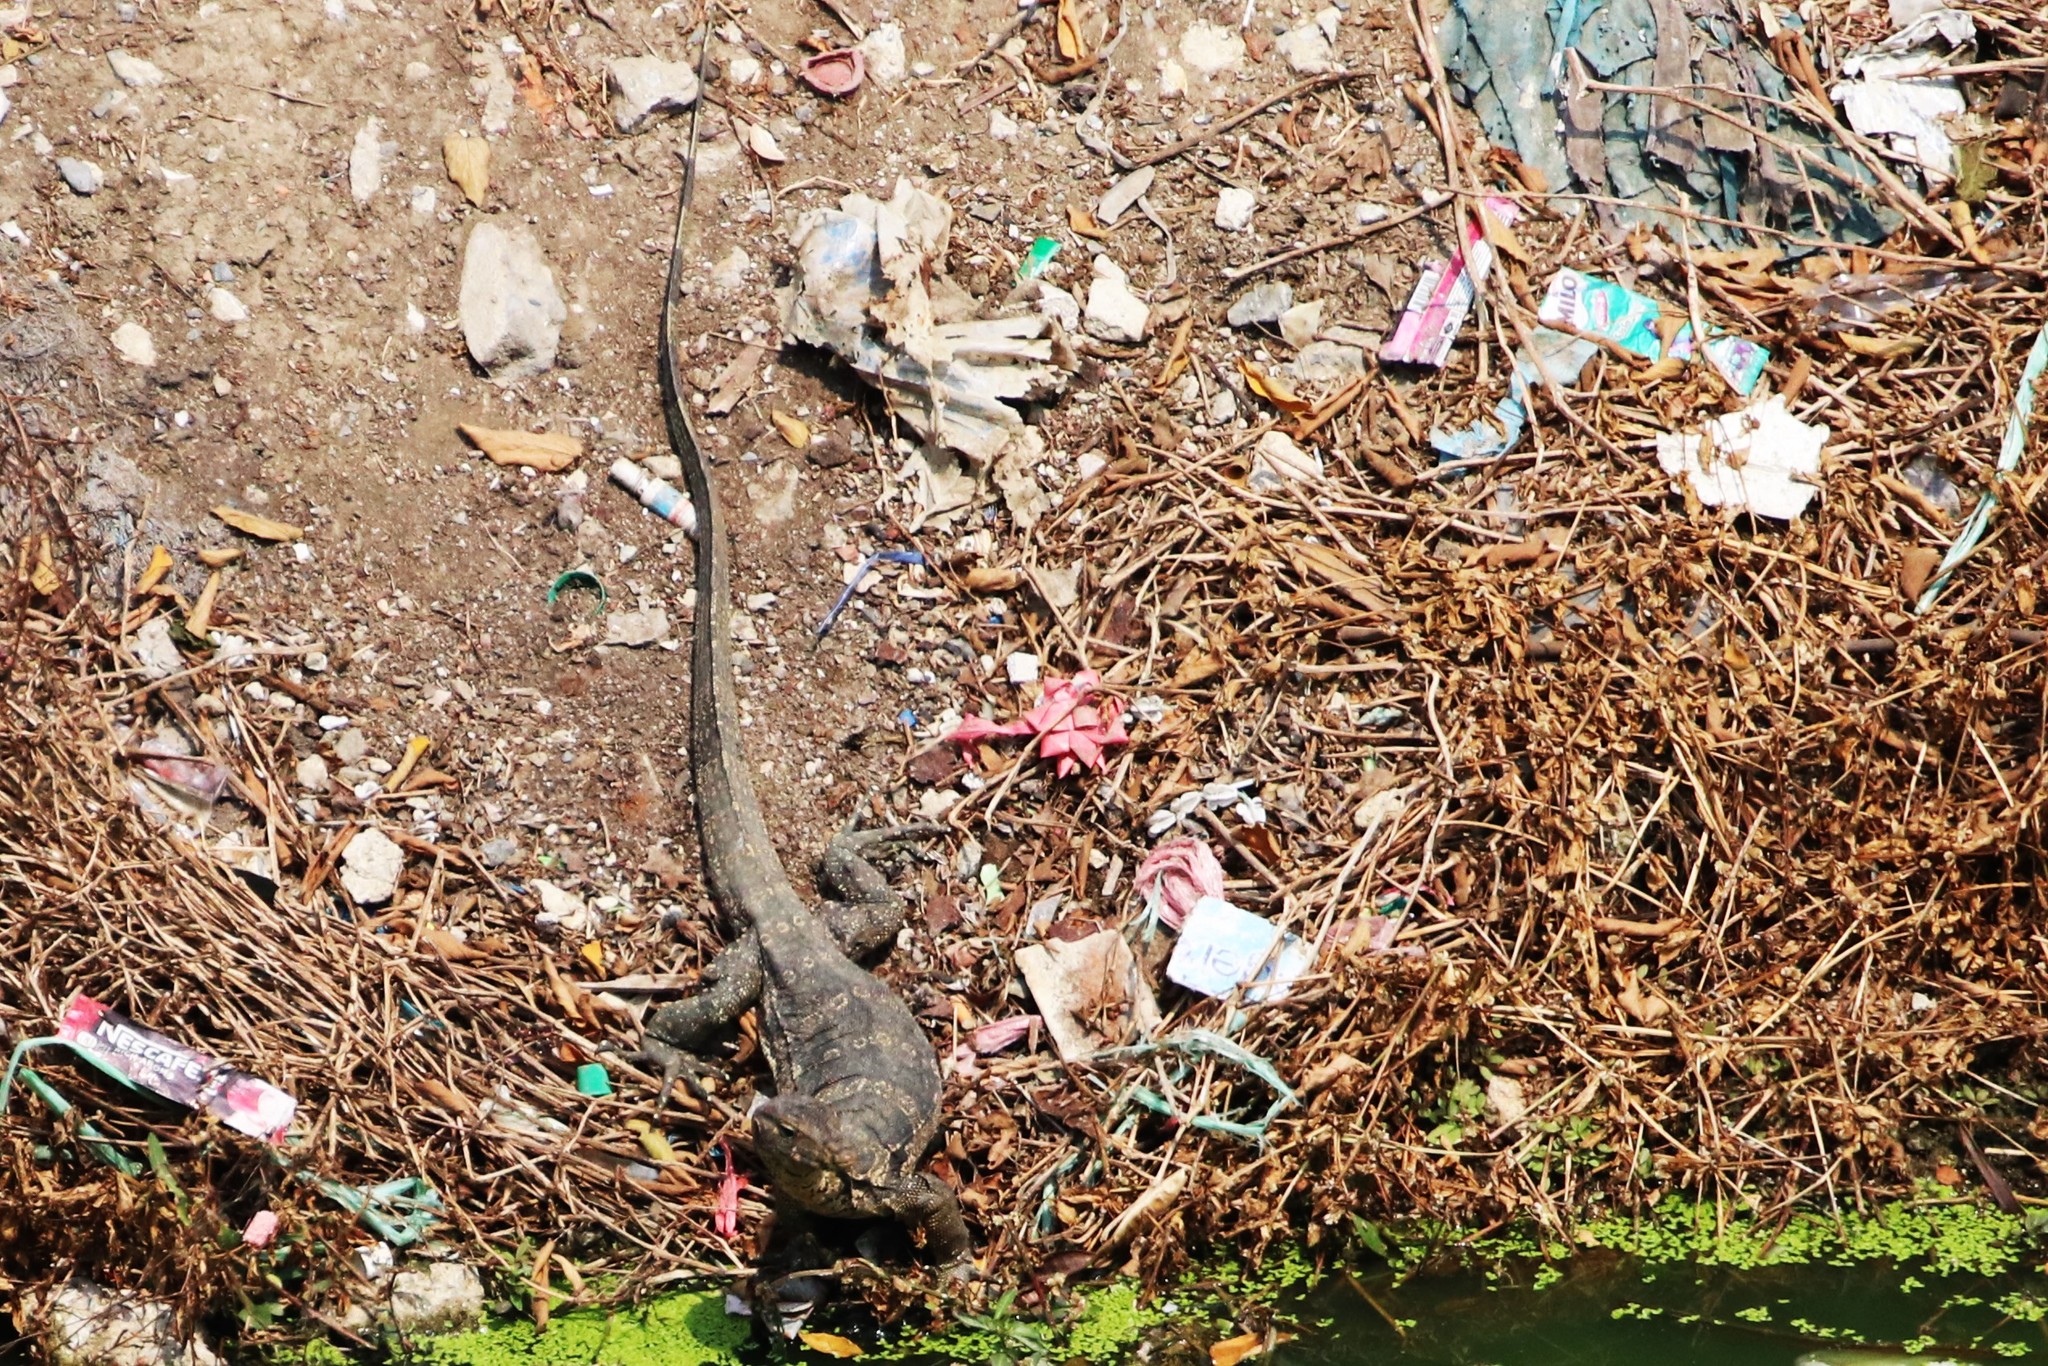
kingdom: Animalia
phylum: Chordata
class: Squamata
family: Varanidae
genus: Varanus
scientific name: Varanus salvator
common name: Common water monitor
